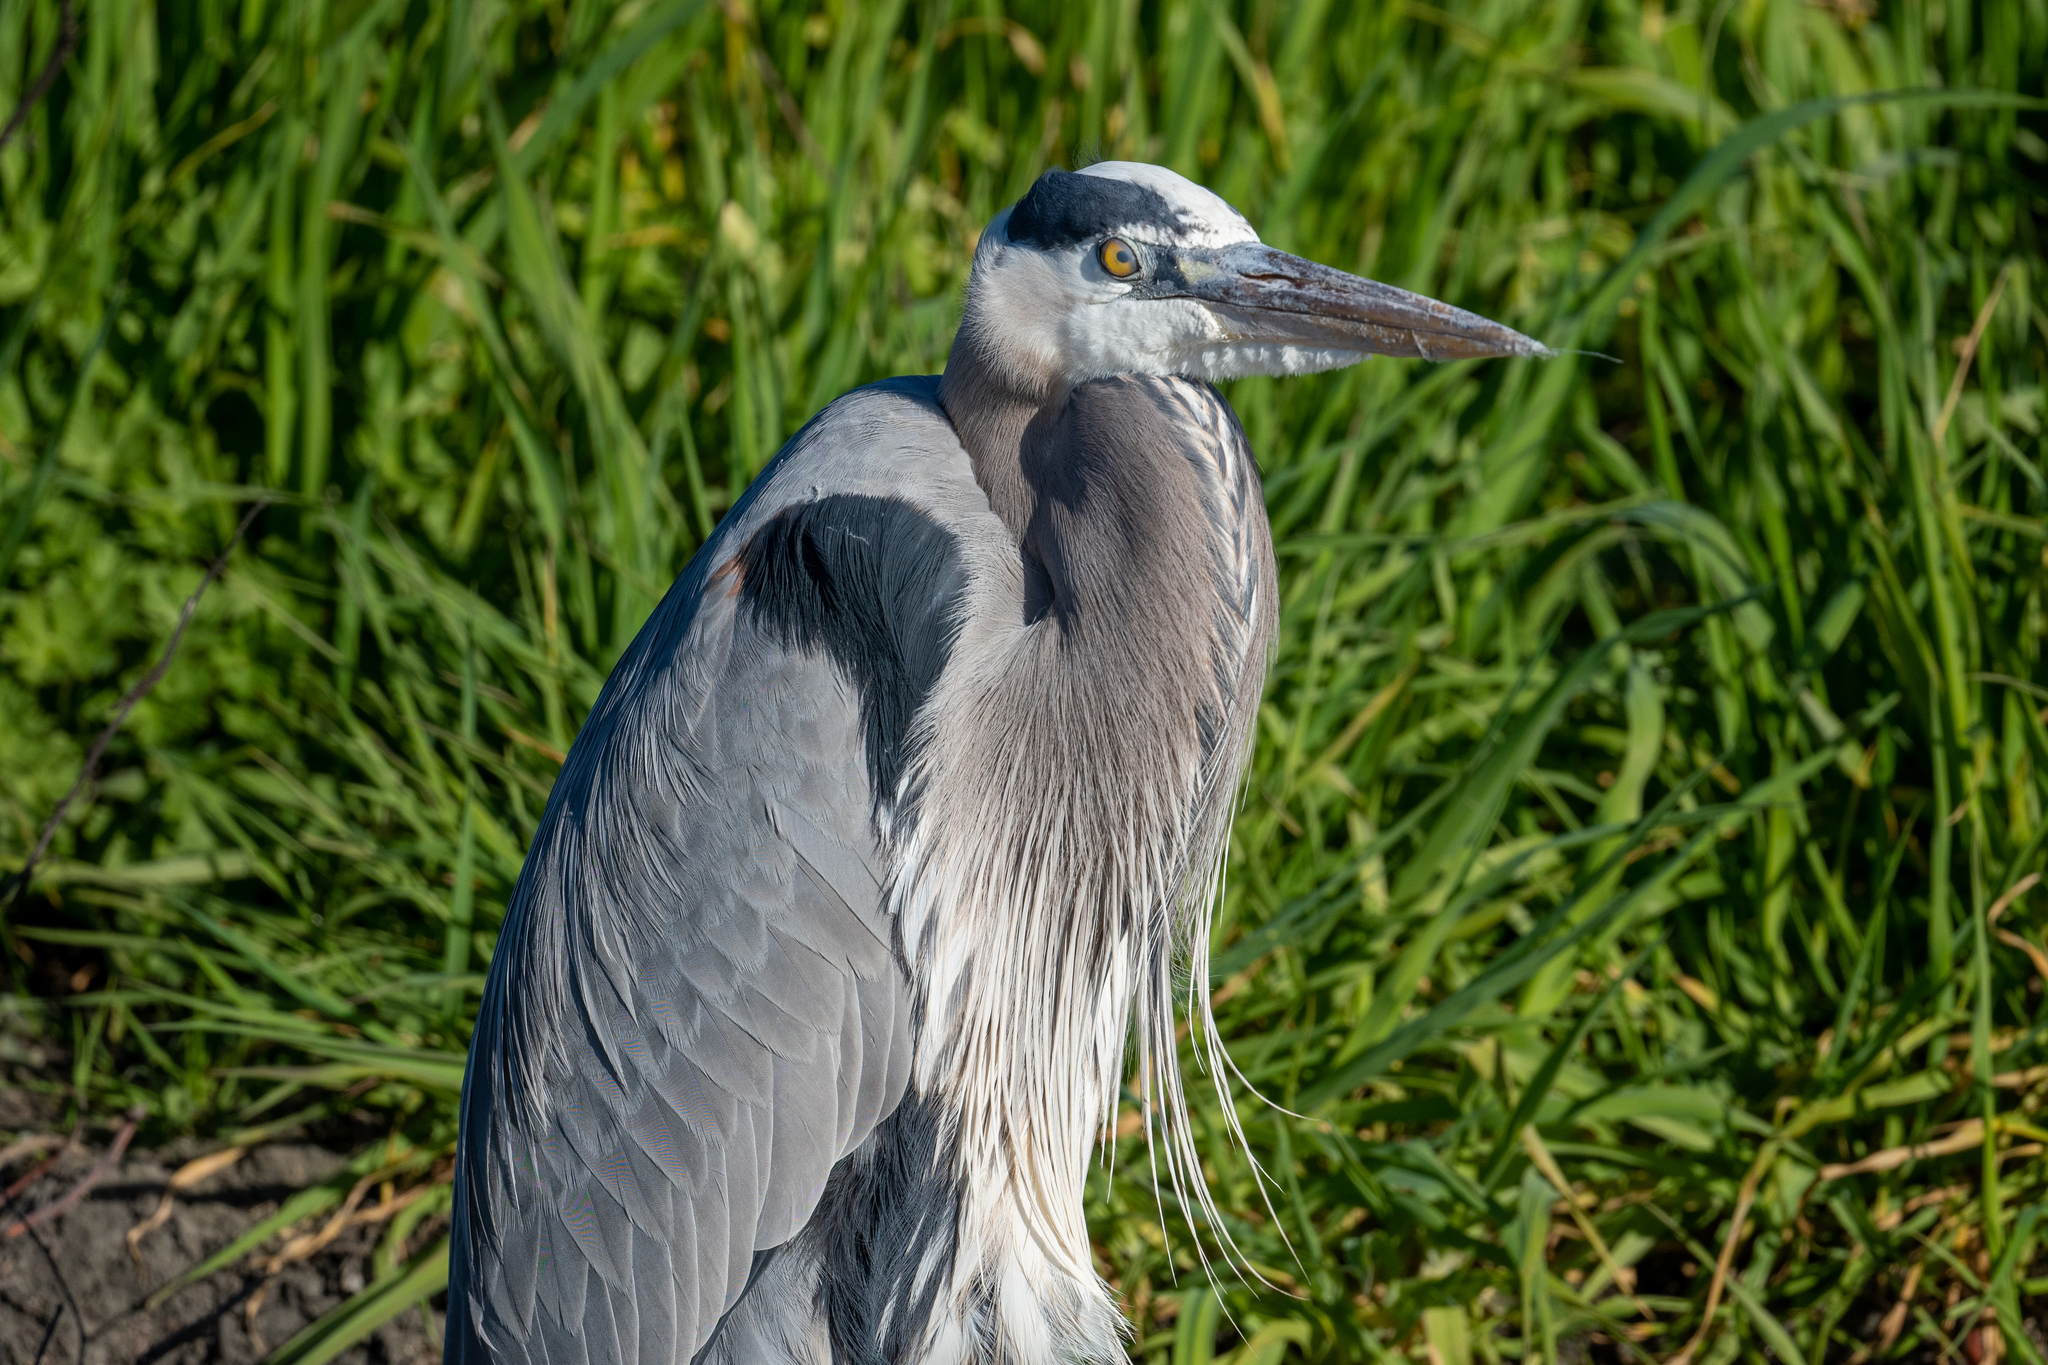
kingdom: Animalia
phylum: Chordata
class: Aves
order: Pelecaniformes
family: Ardeidae
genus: Ardea
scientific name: Ardea herodias
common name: Great blue heron
